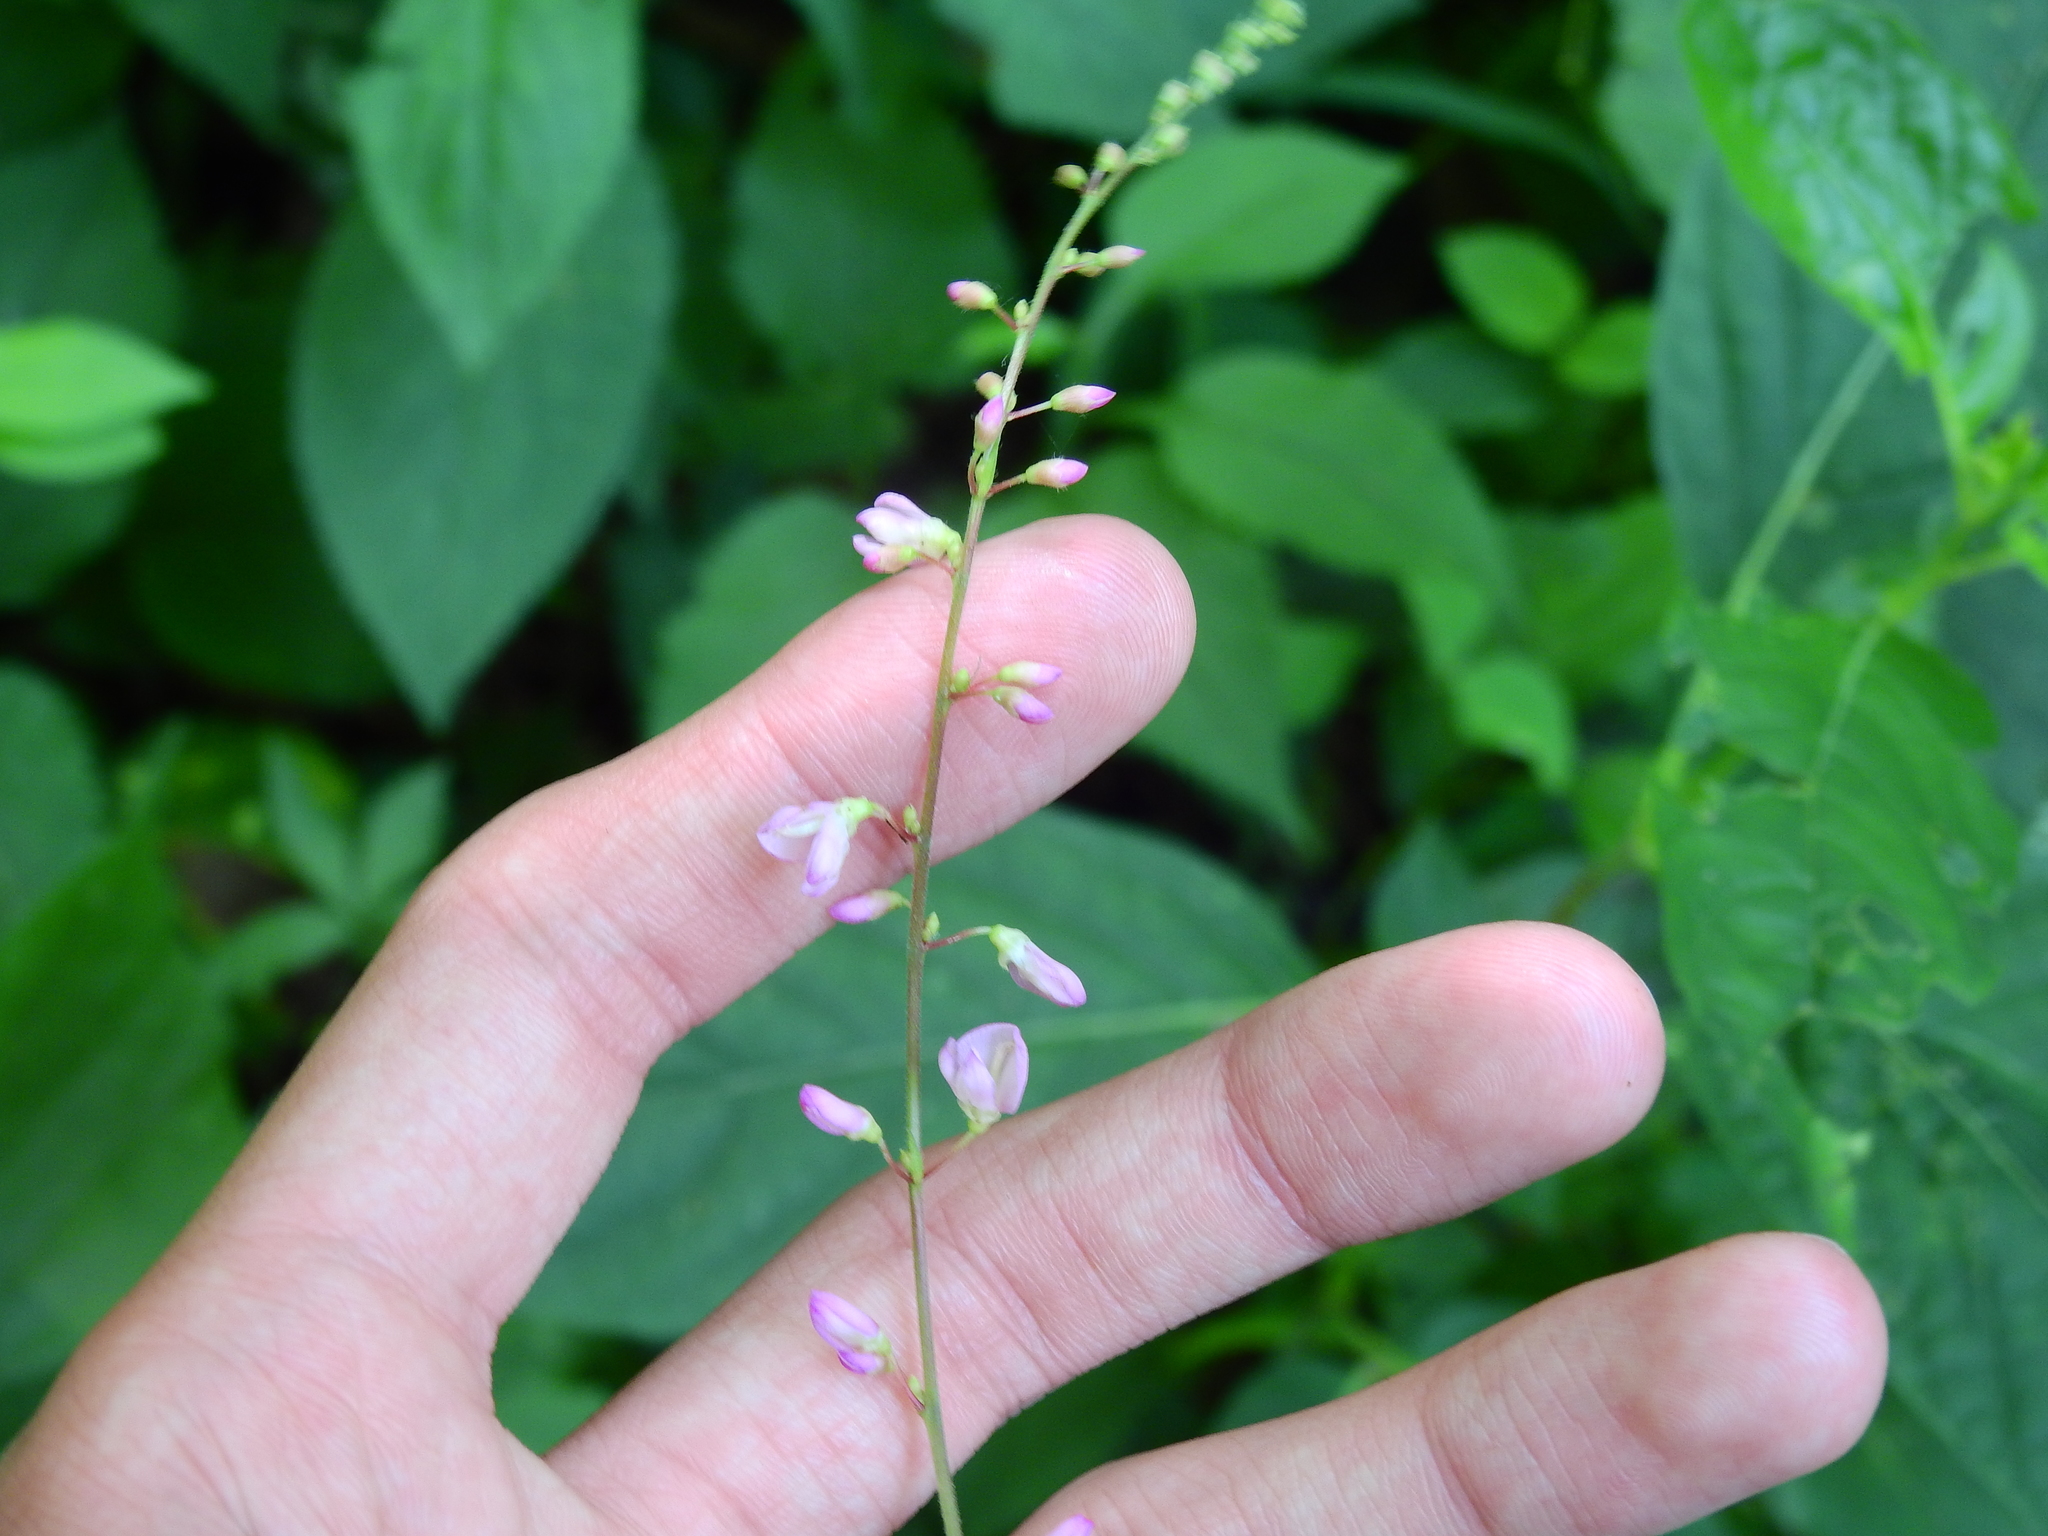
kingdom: Plantae
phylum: Tracheophyta
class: Magnoliopsida
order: Fabales
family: Fabaceae
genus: Hylodesmum
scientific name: Hylodesmum glutinosum
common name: Clustered-leaved tick-trefoil
